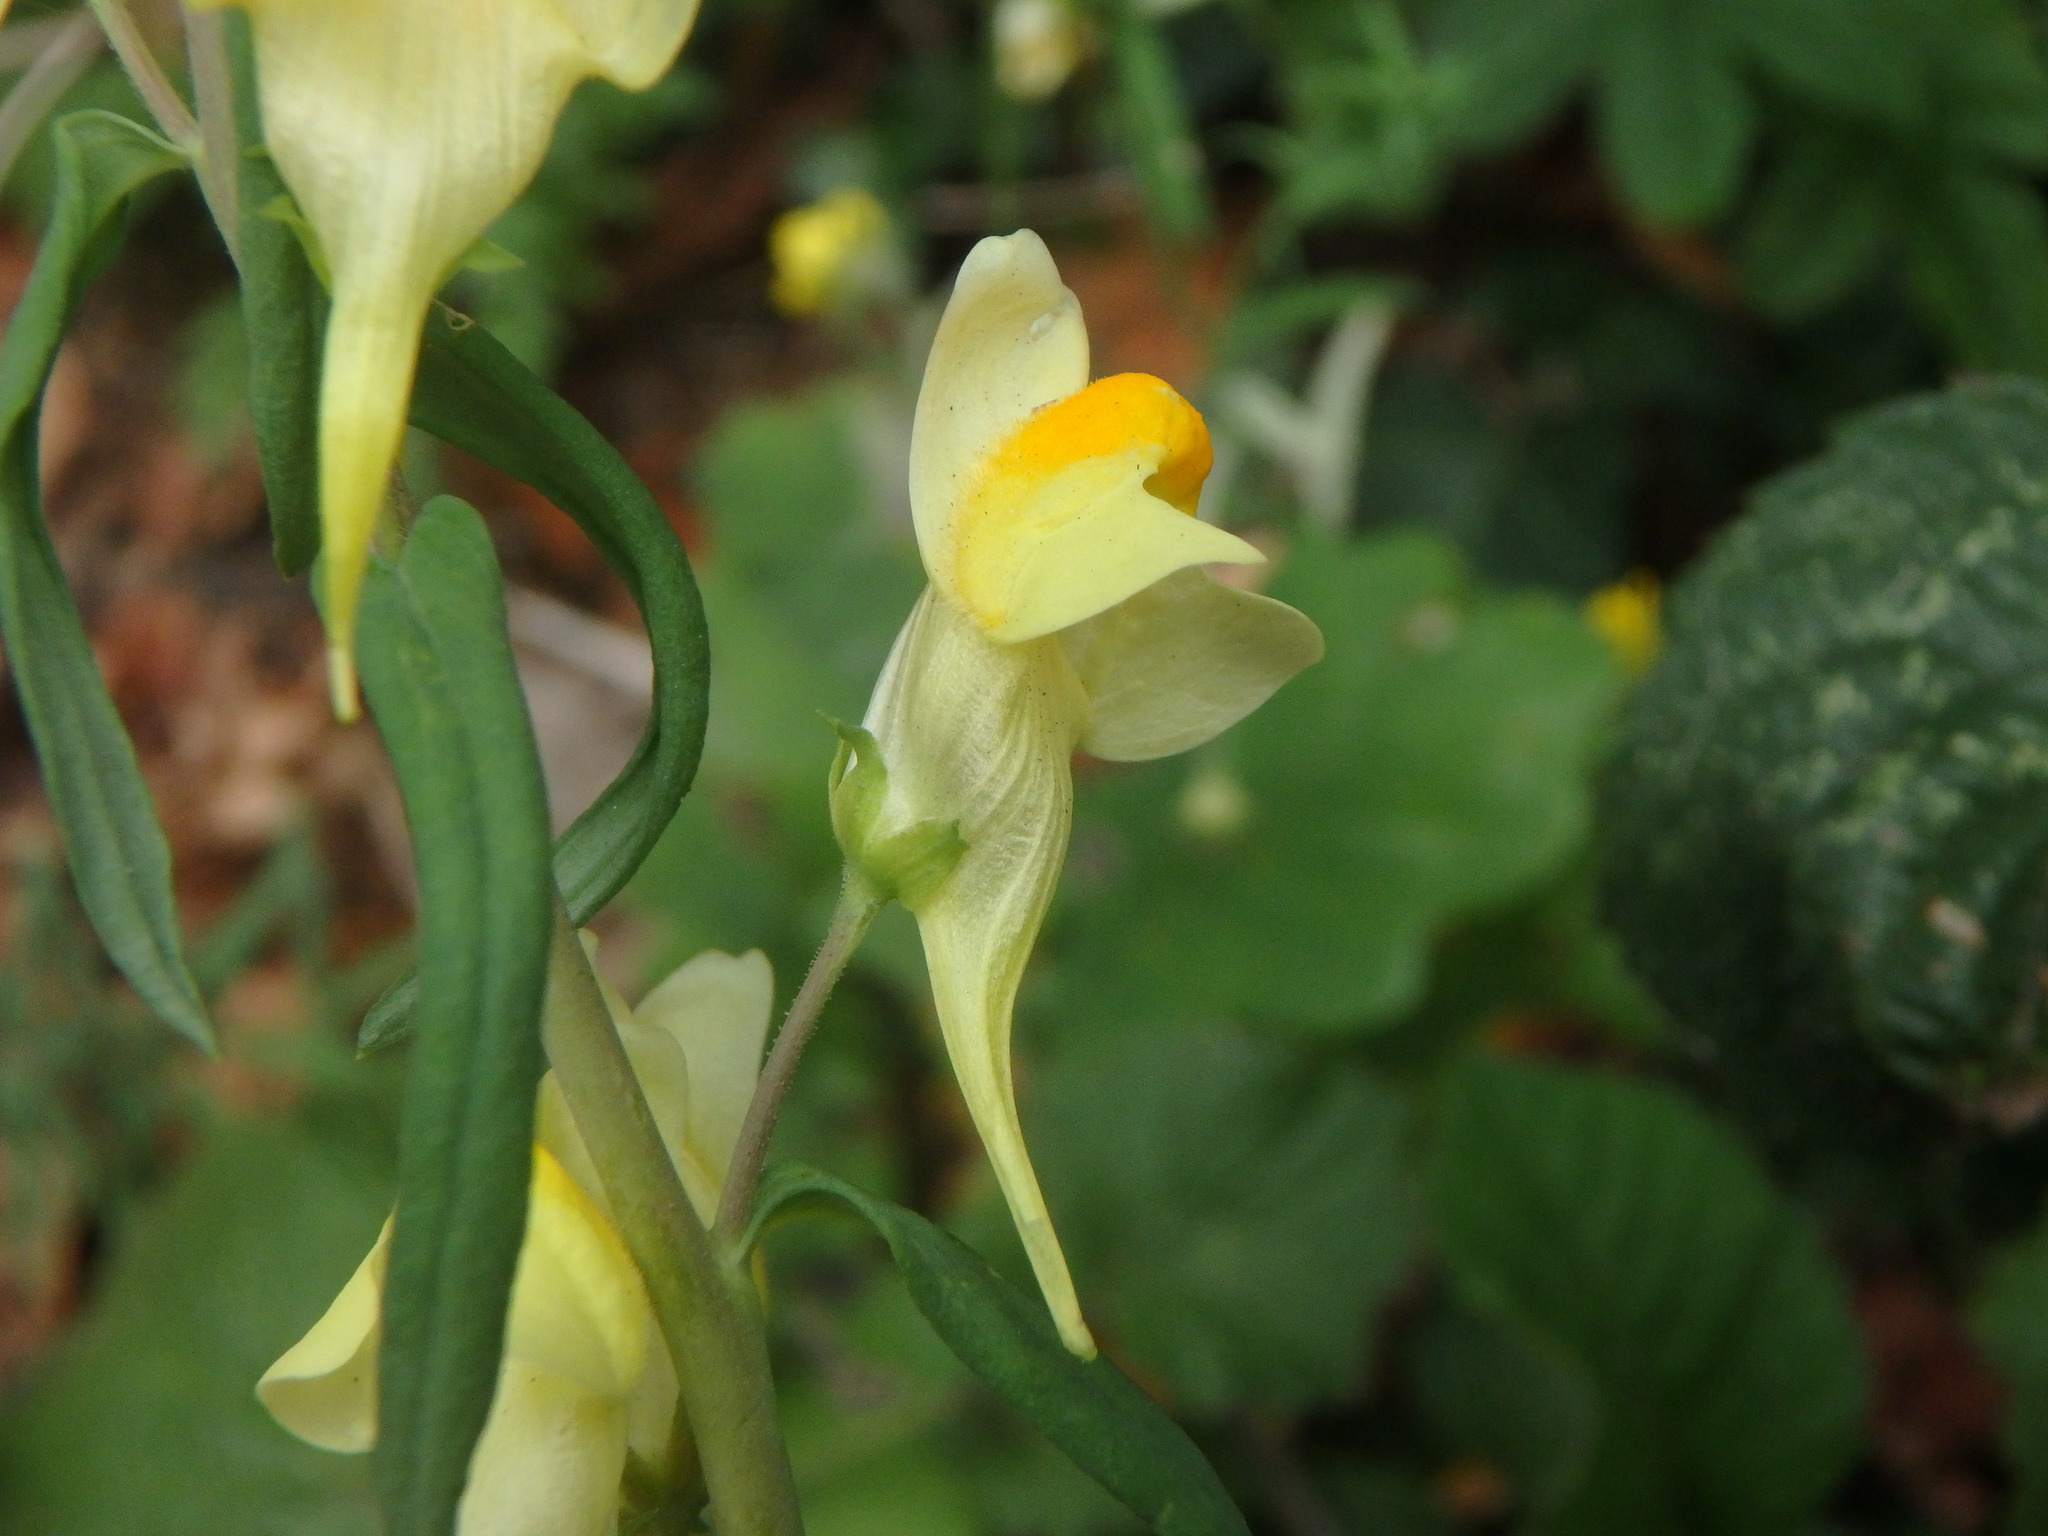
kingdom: Plantae
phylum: Tracheophyta
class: Magnoliopsida
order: Lamiales
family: Plantaginaceae
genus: Linaria
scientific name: Linaria vulgaris
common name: Butter and eggs
